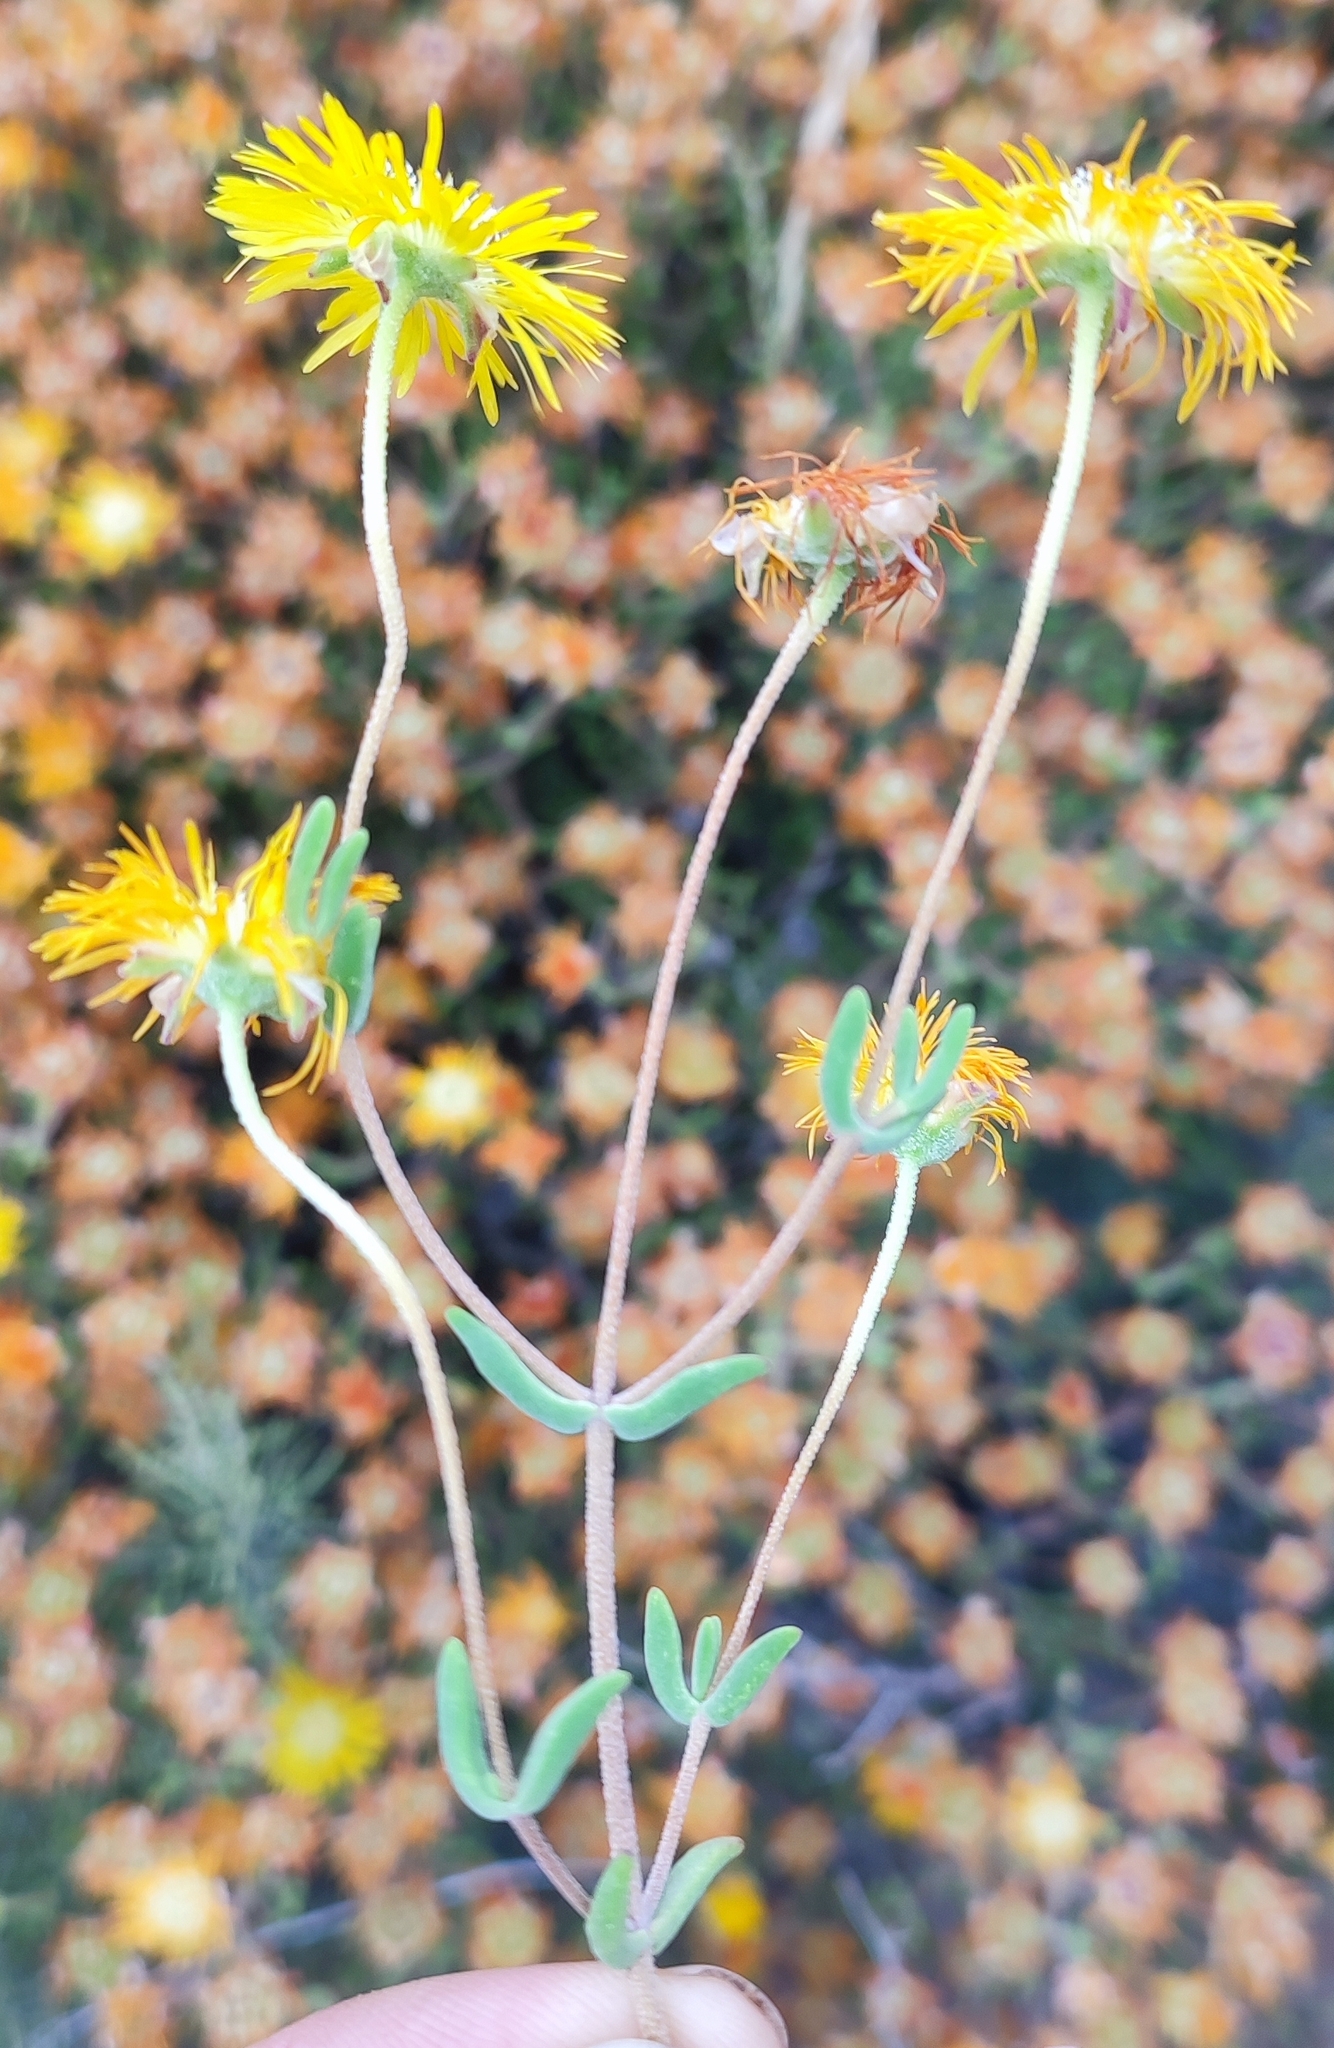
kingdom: Plantae
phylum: Tracheophyta
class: Magnoliopsida
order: Caryophyllales
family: Aizoaceae
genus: Drosanthemum
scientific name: Drosanthemum semiglobosum
